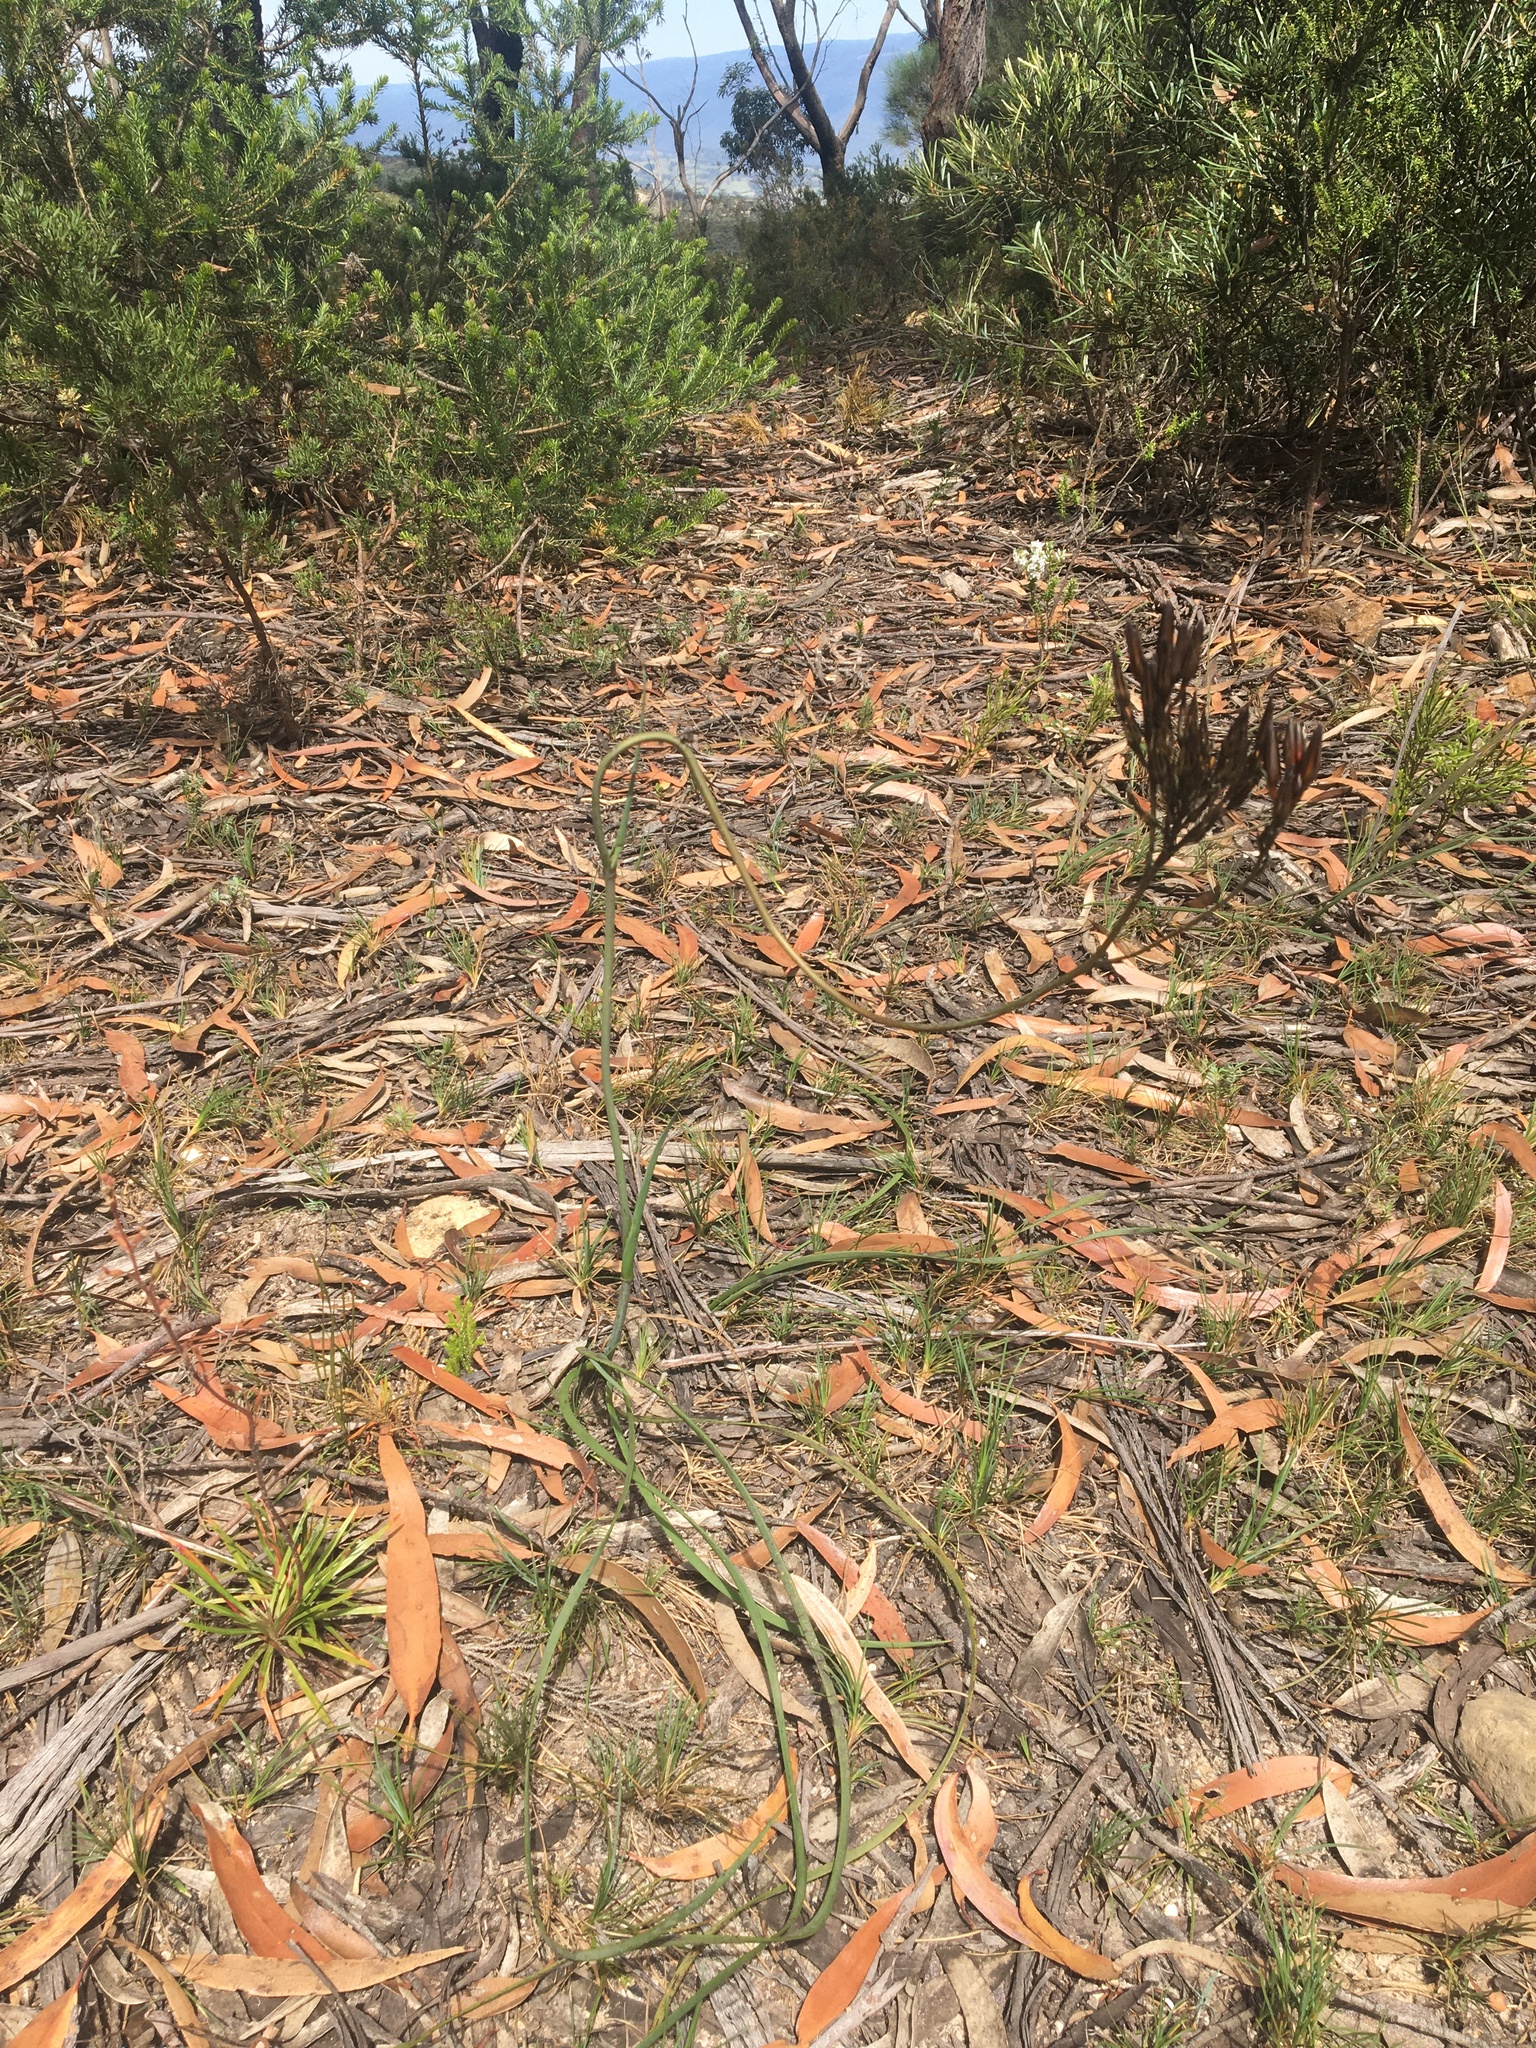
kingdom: Plantae
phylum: Tracheophyta
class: Liliopsida
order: Commelinales
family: Haemodoraceae
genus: Haemodorum
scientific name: Haemodorum planifolium
